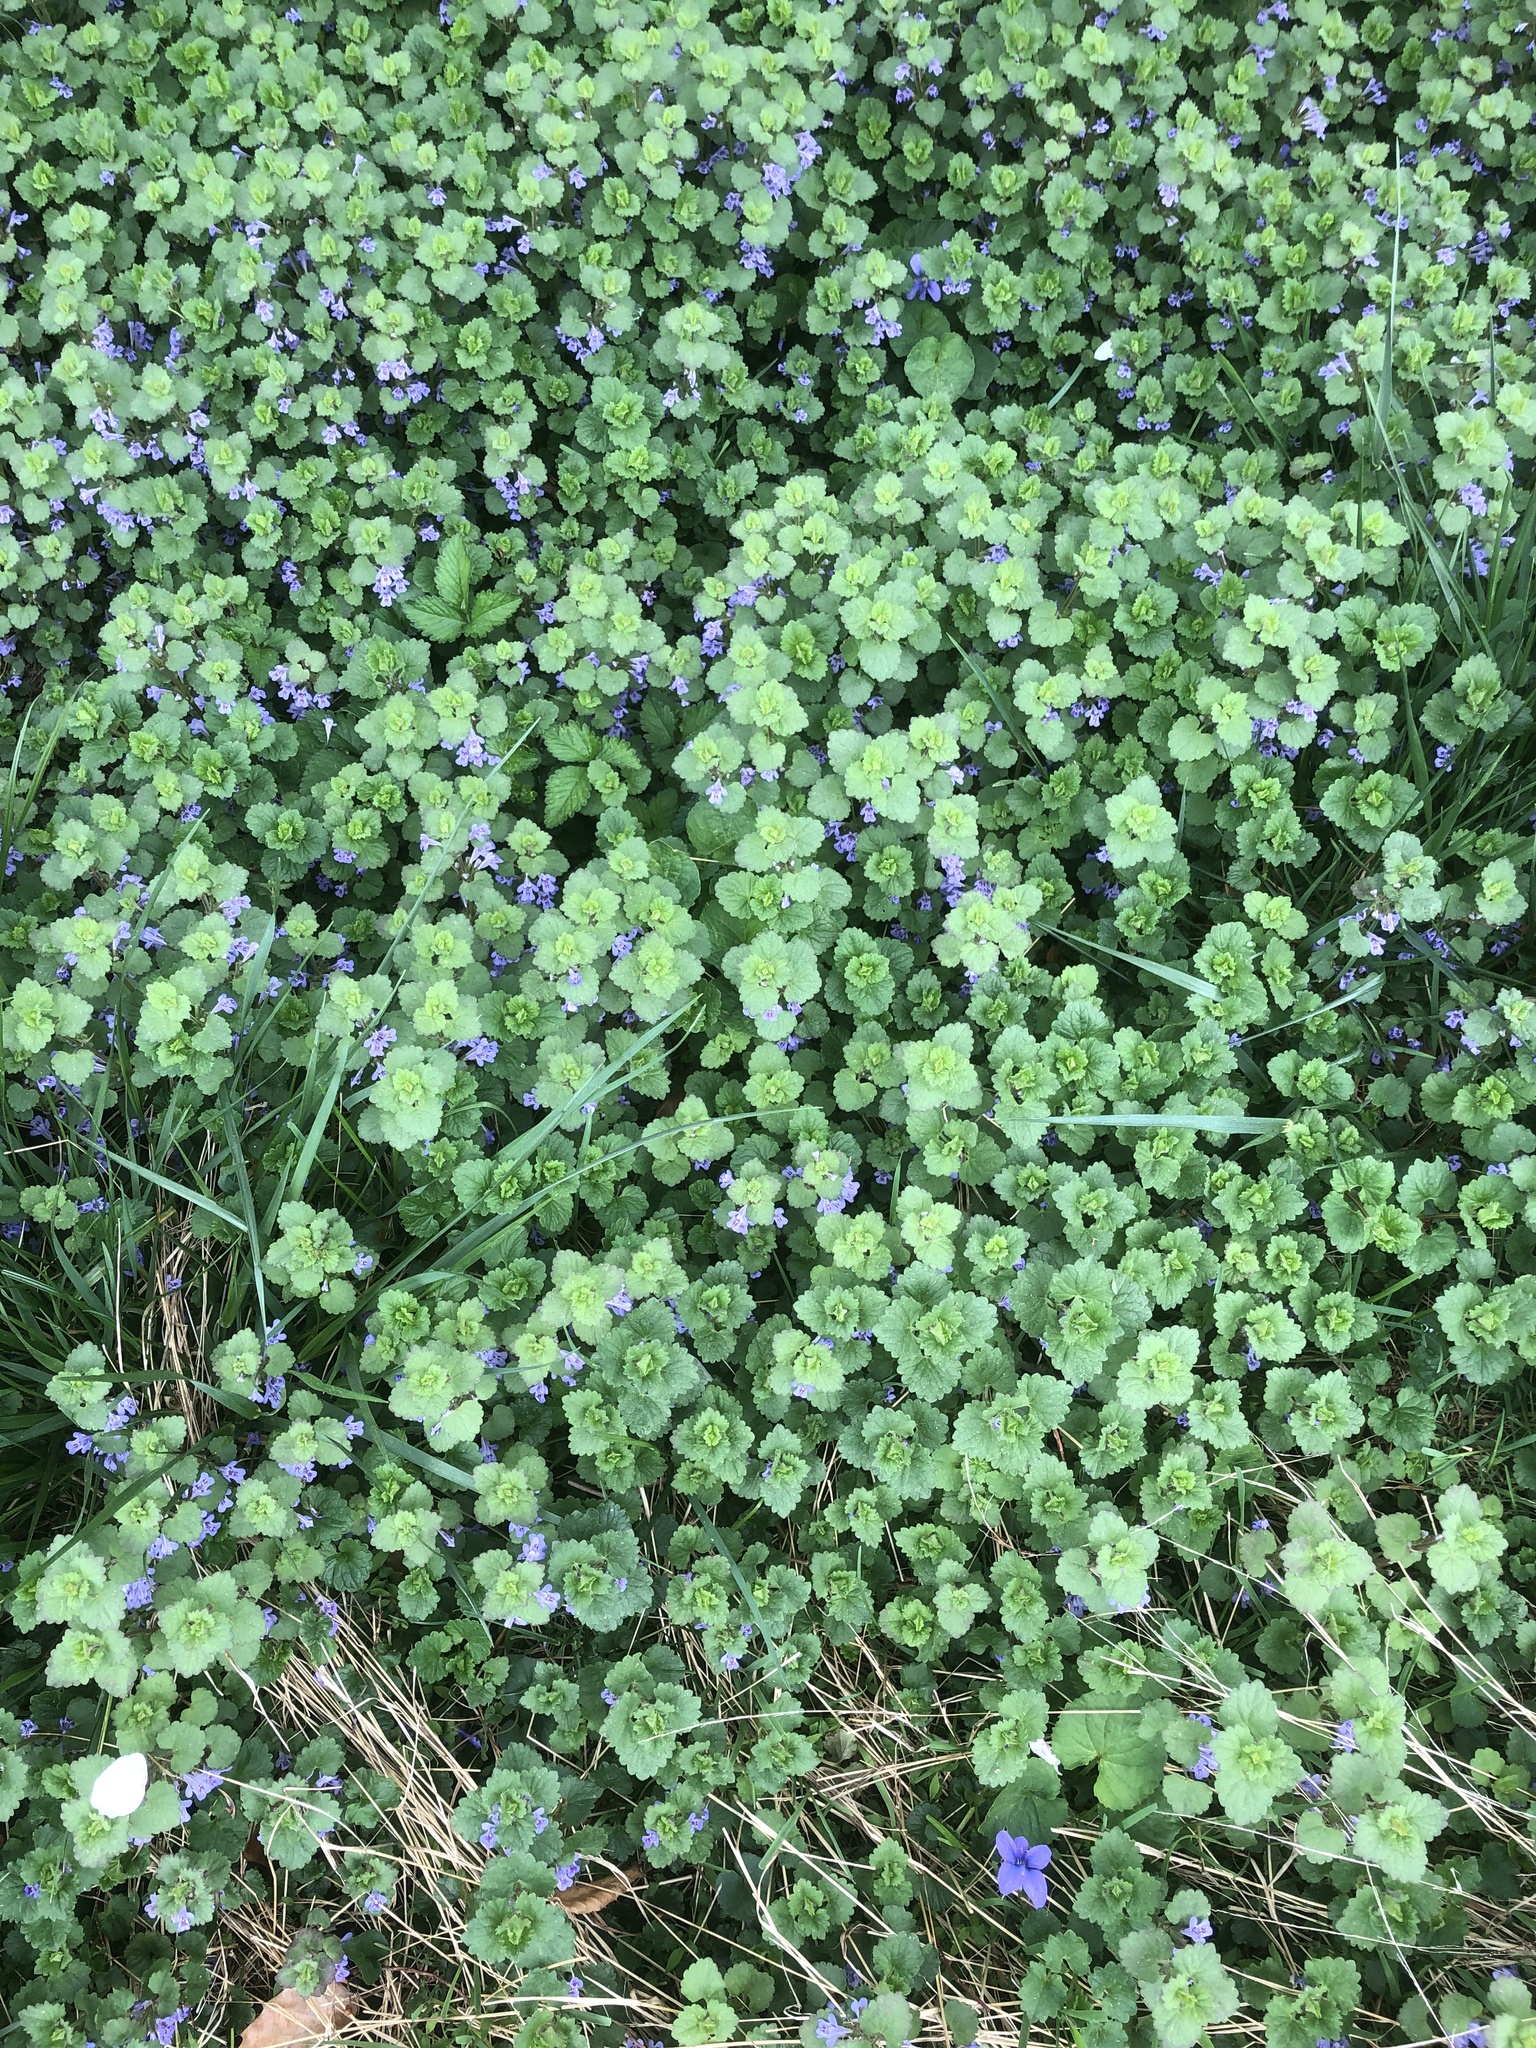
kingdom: Plantae
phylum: Tracheophyta
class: Magnoliopsida
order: Lamiales
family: Lamiaceae
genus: Glechoma
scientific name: Glechoma hederacea
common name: Ground ivy
